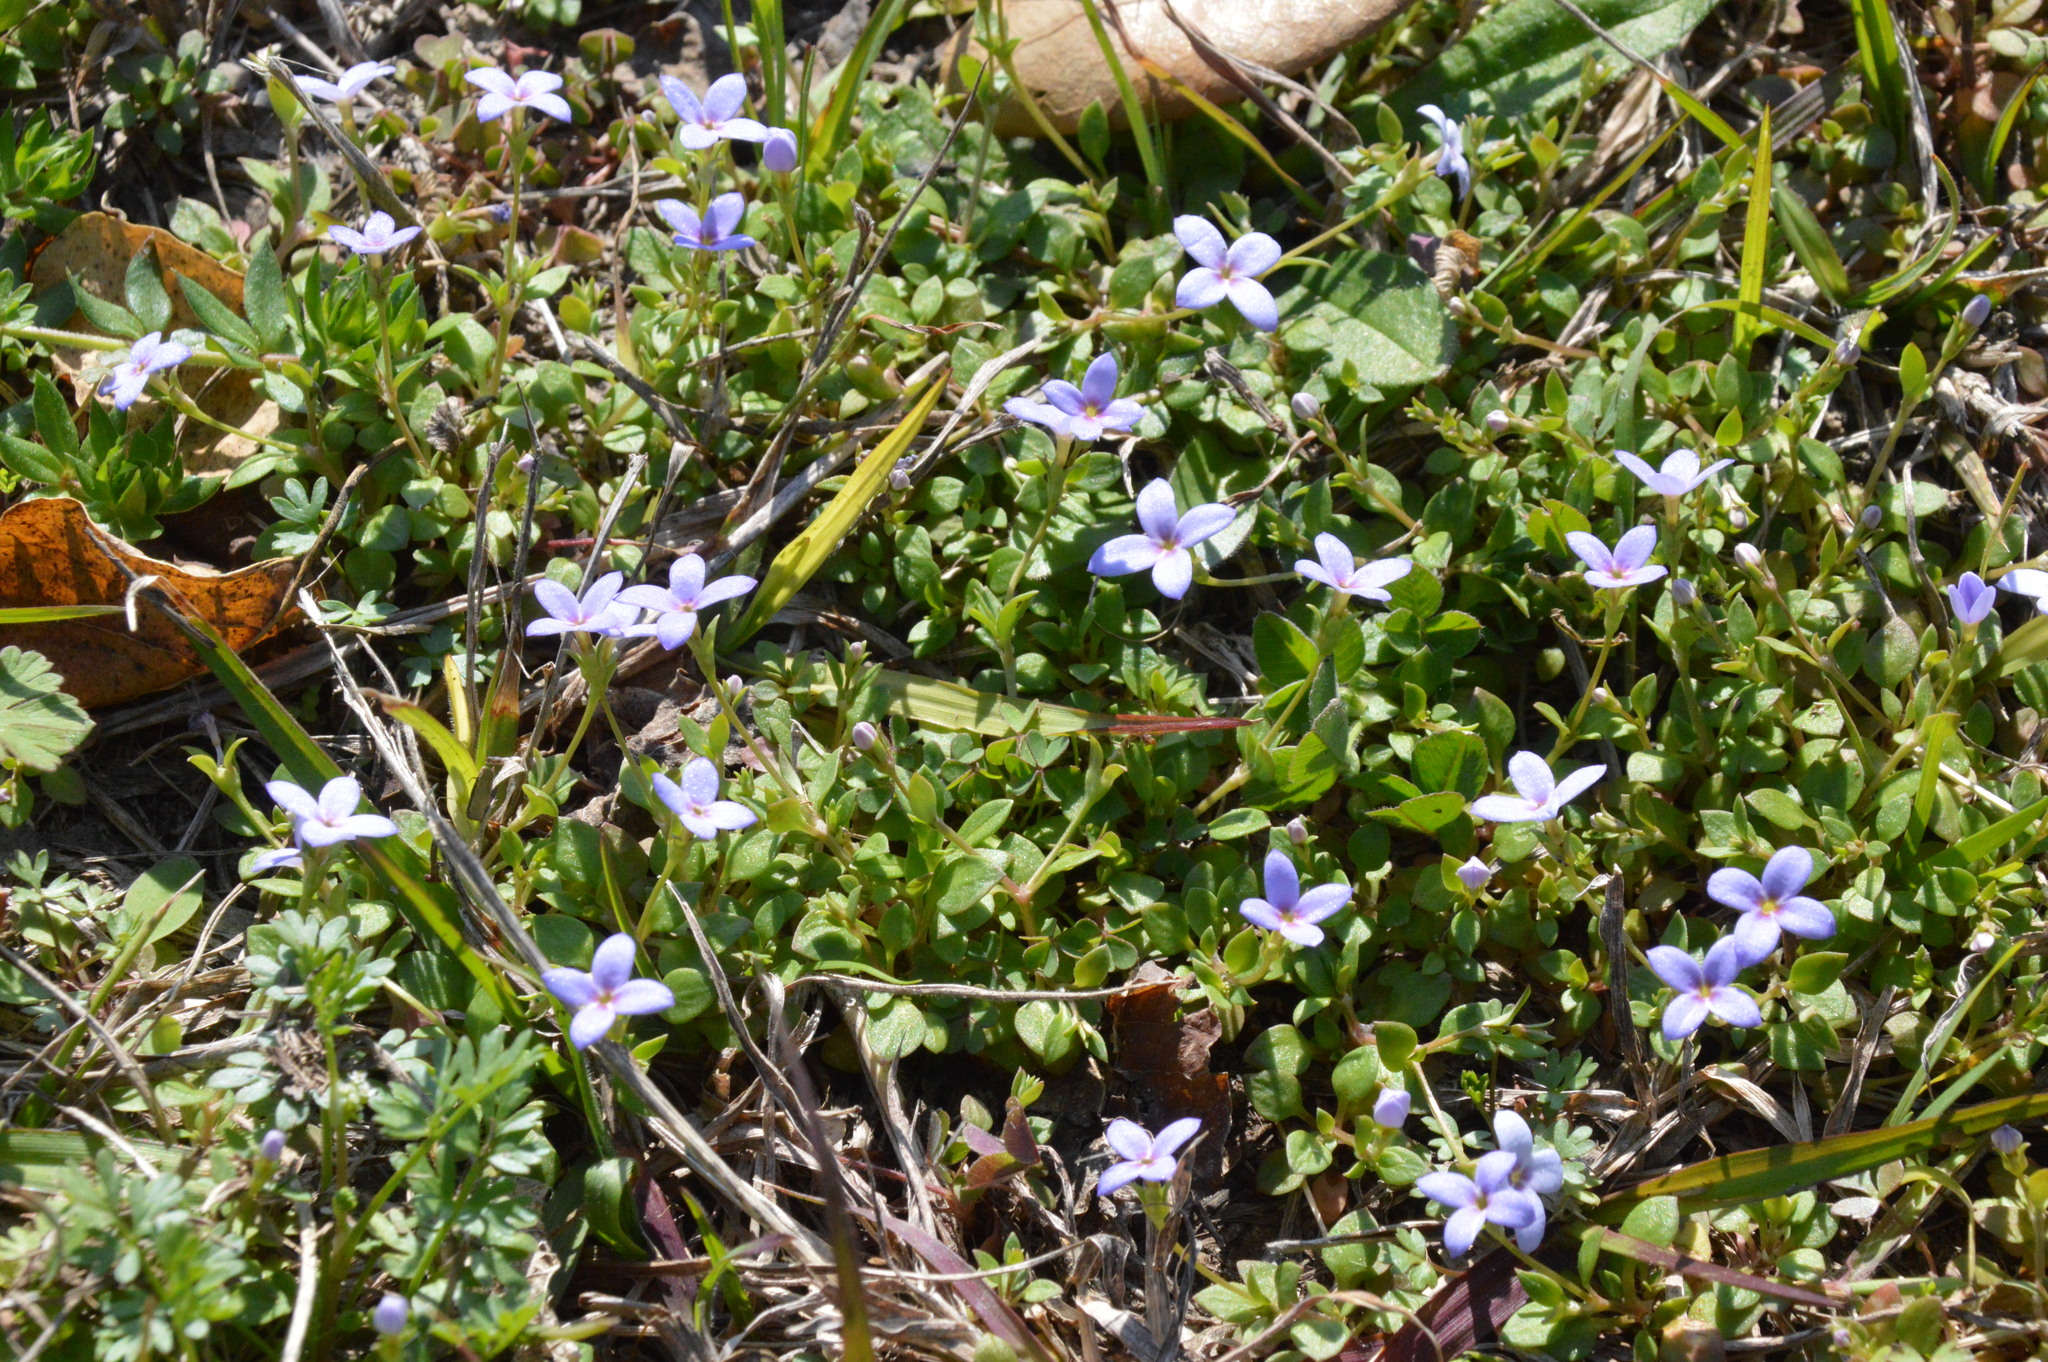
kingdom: Plantae
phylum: Tracheophyta
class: Magnoliopsida
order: Gentianales
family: Rubiaceae
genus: Houstonia
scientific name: Houstonia pusilla
